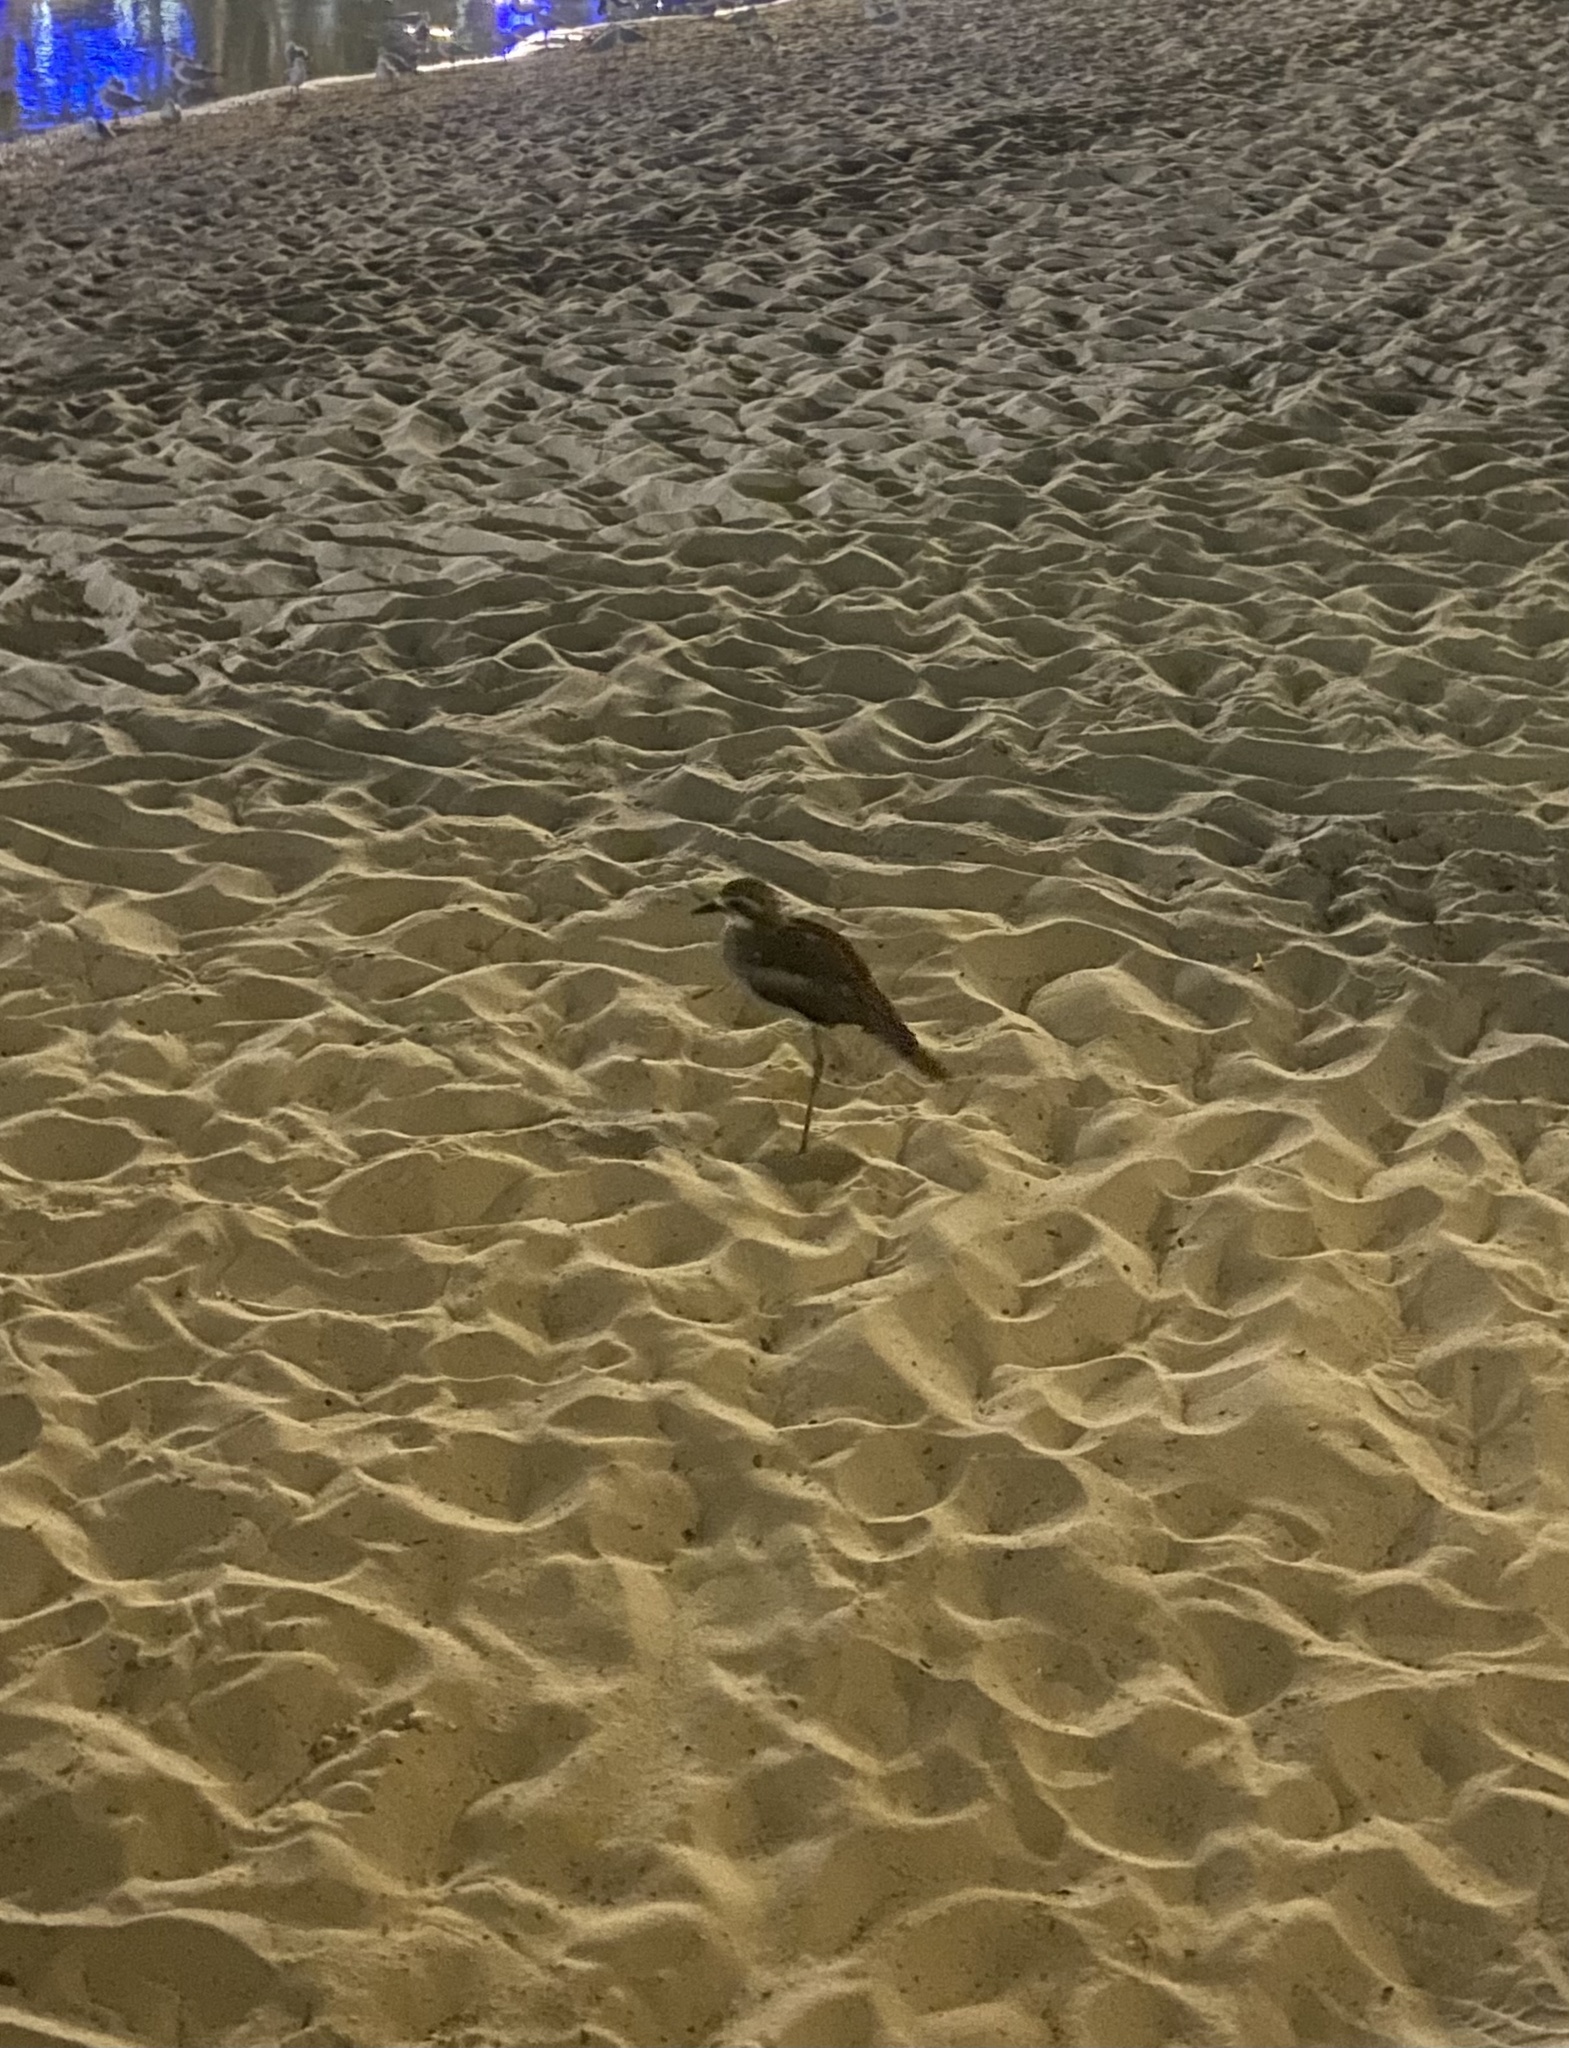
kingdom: Animalia
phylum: Chordata
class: Aves
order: Charadriiformes
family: Burhinidae
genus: Burhinus
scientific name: Burhinus grallarius
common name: Bush stone-curlew
